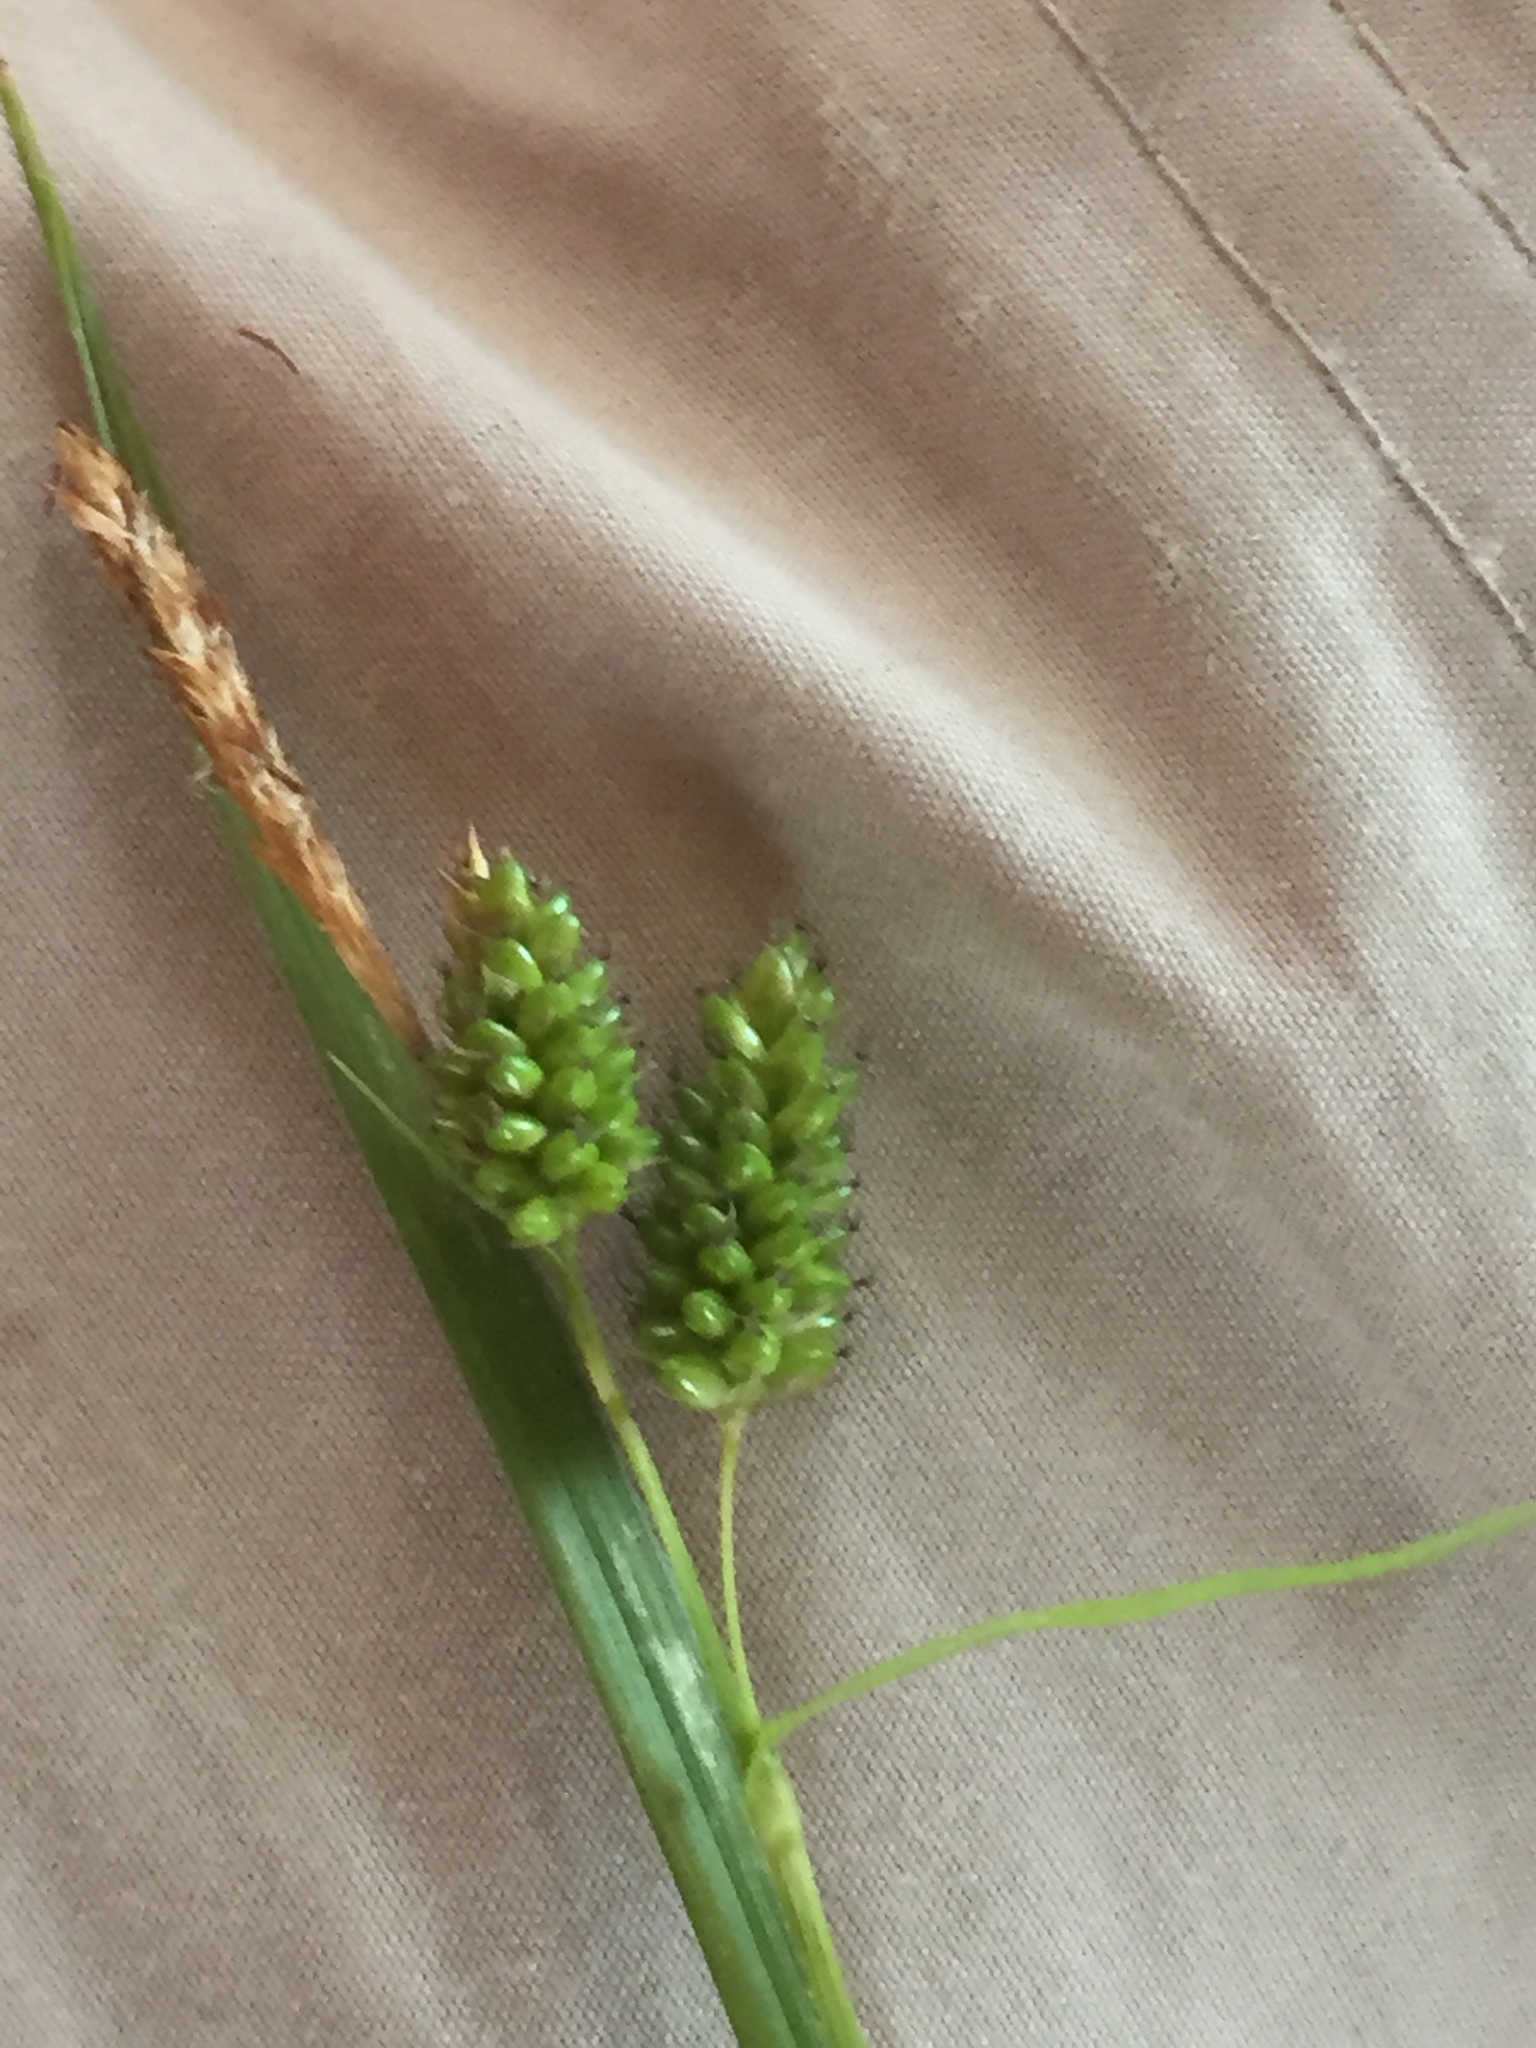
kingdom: Plantae
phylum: Tracheophyta
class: Liliopsida
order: Poales
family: Cyperaceae
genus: Carex
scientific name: Carex pallescens
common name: Pale sedge
